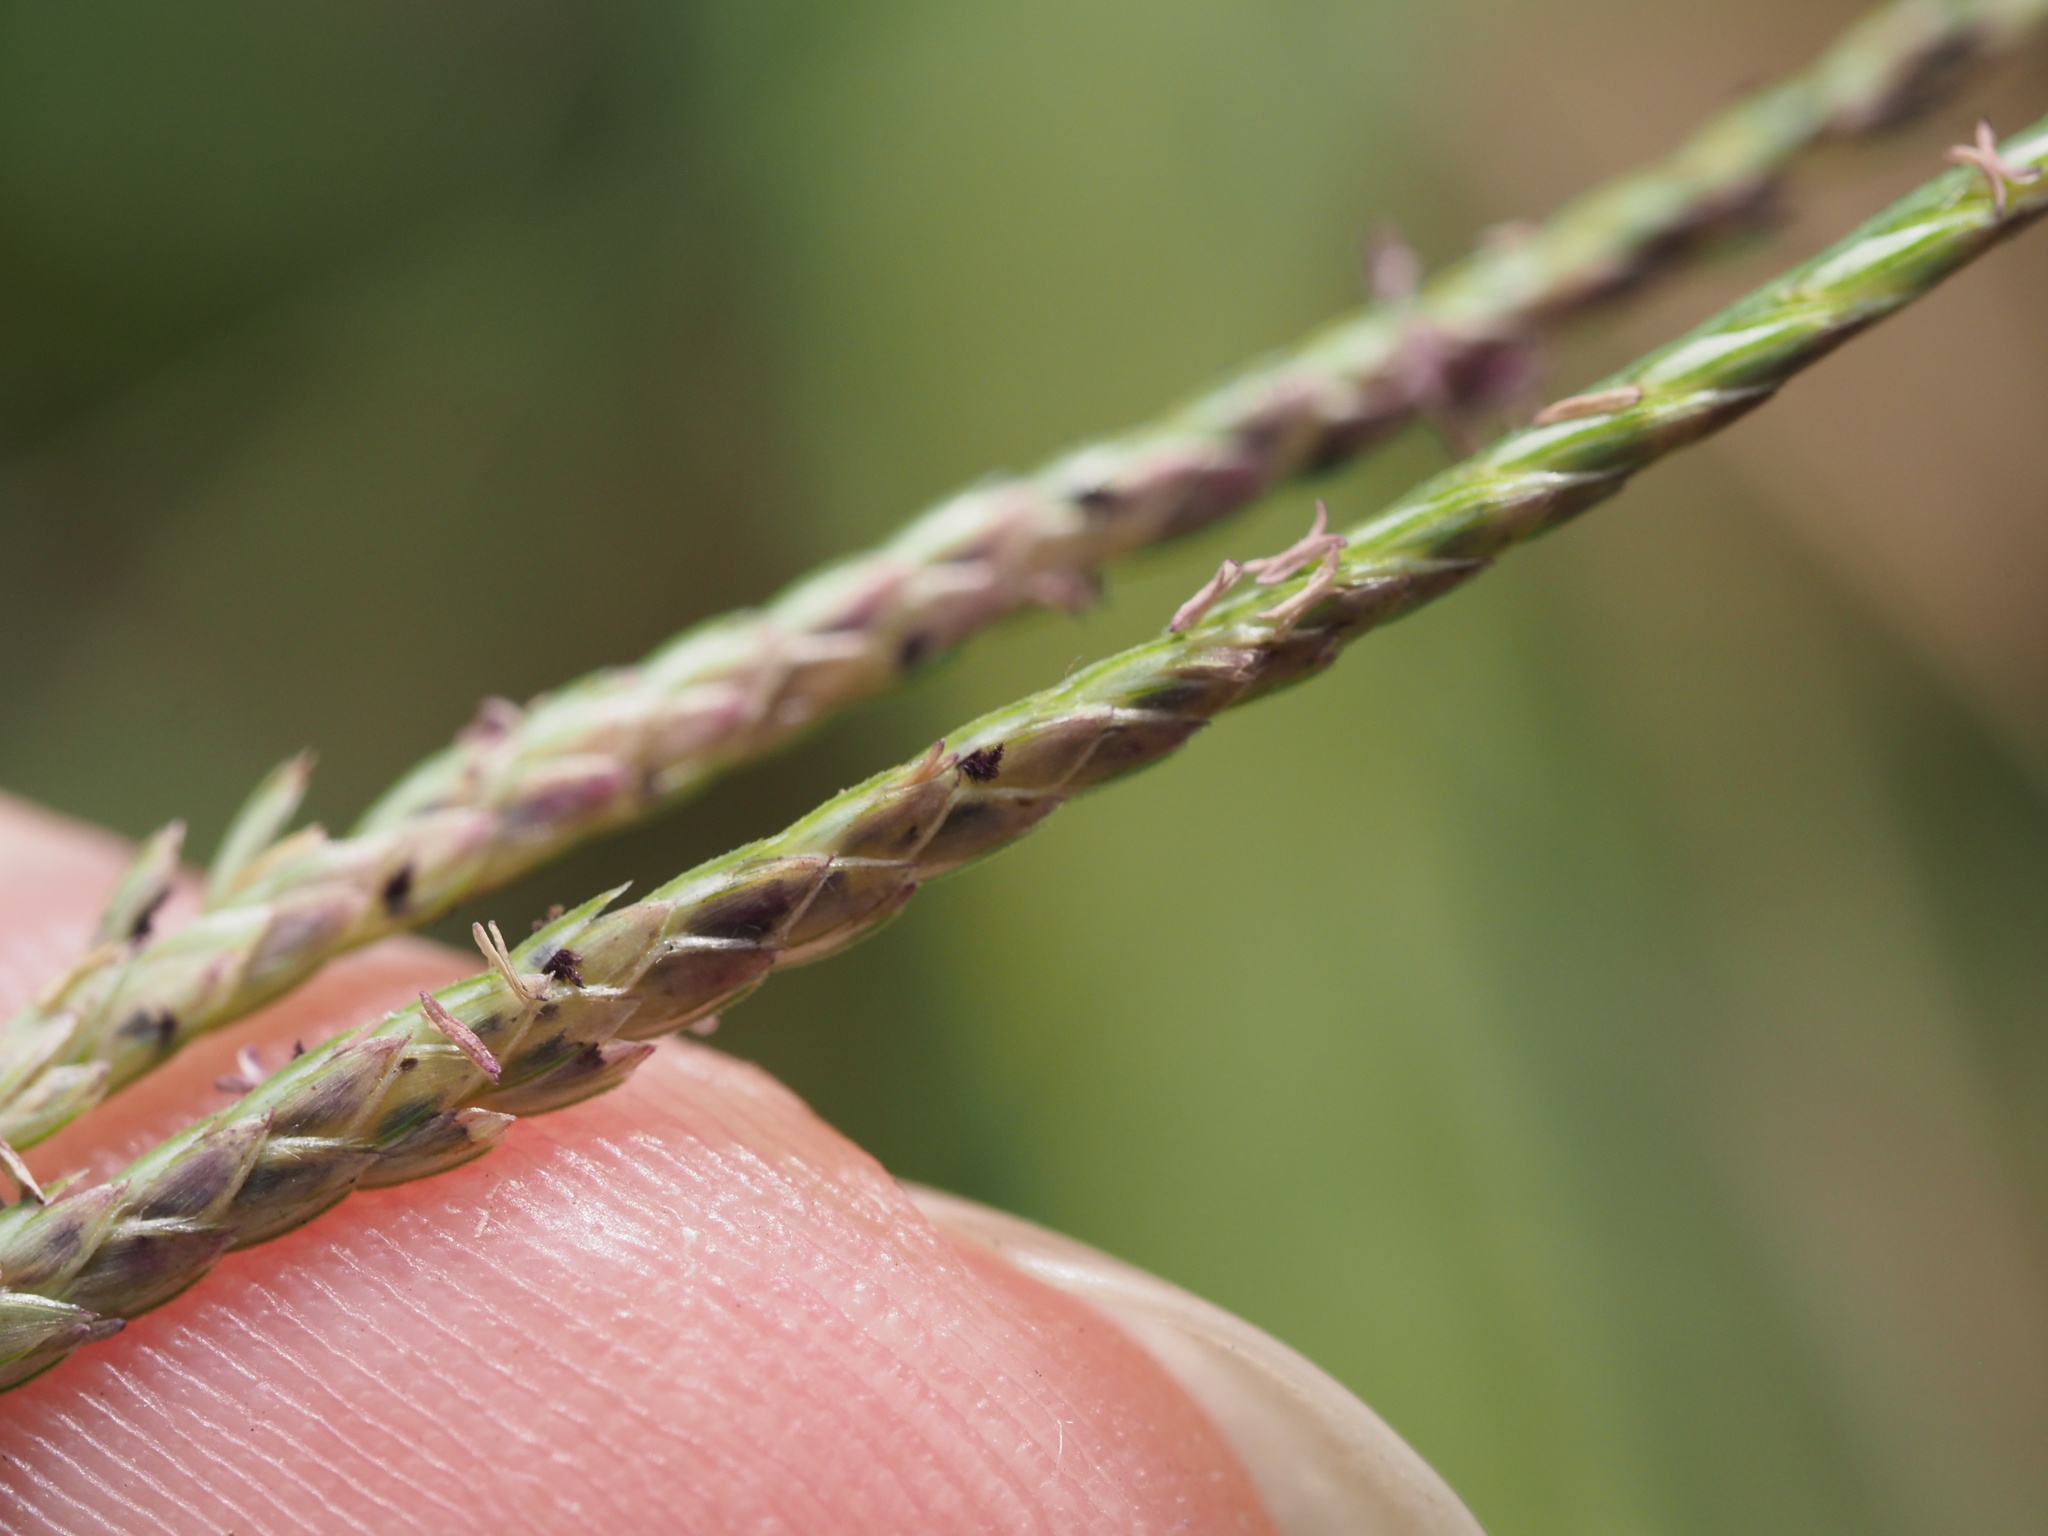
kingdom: Plantae
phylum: Tracheophyta
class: Liliopsida
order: Poales
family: Poaceae
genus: Cynodon
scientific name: Cynodon dactylon
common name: Bermuda grass
